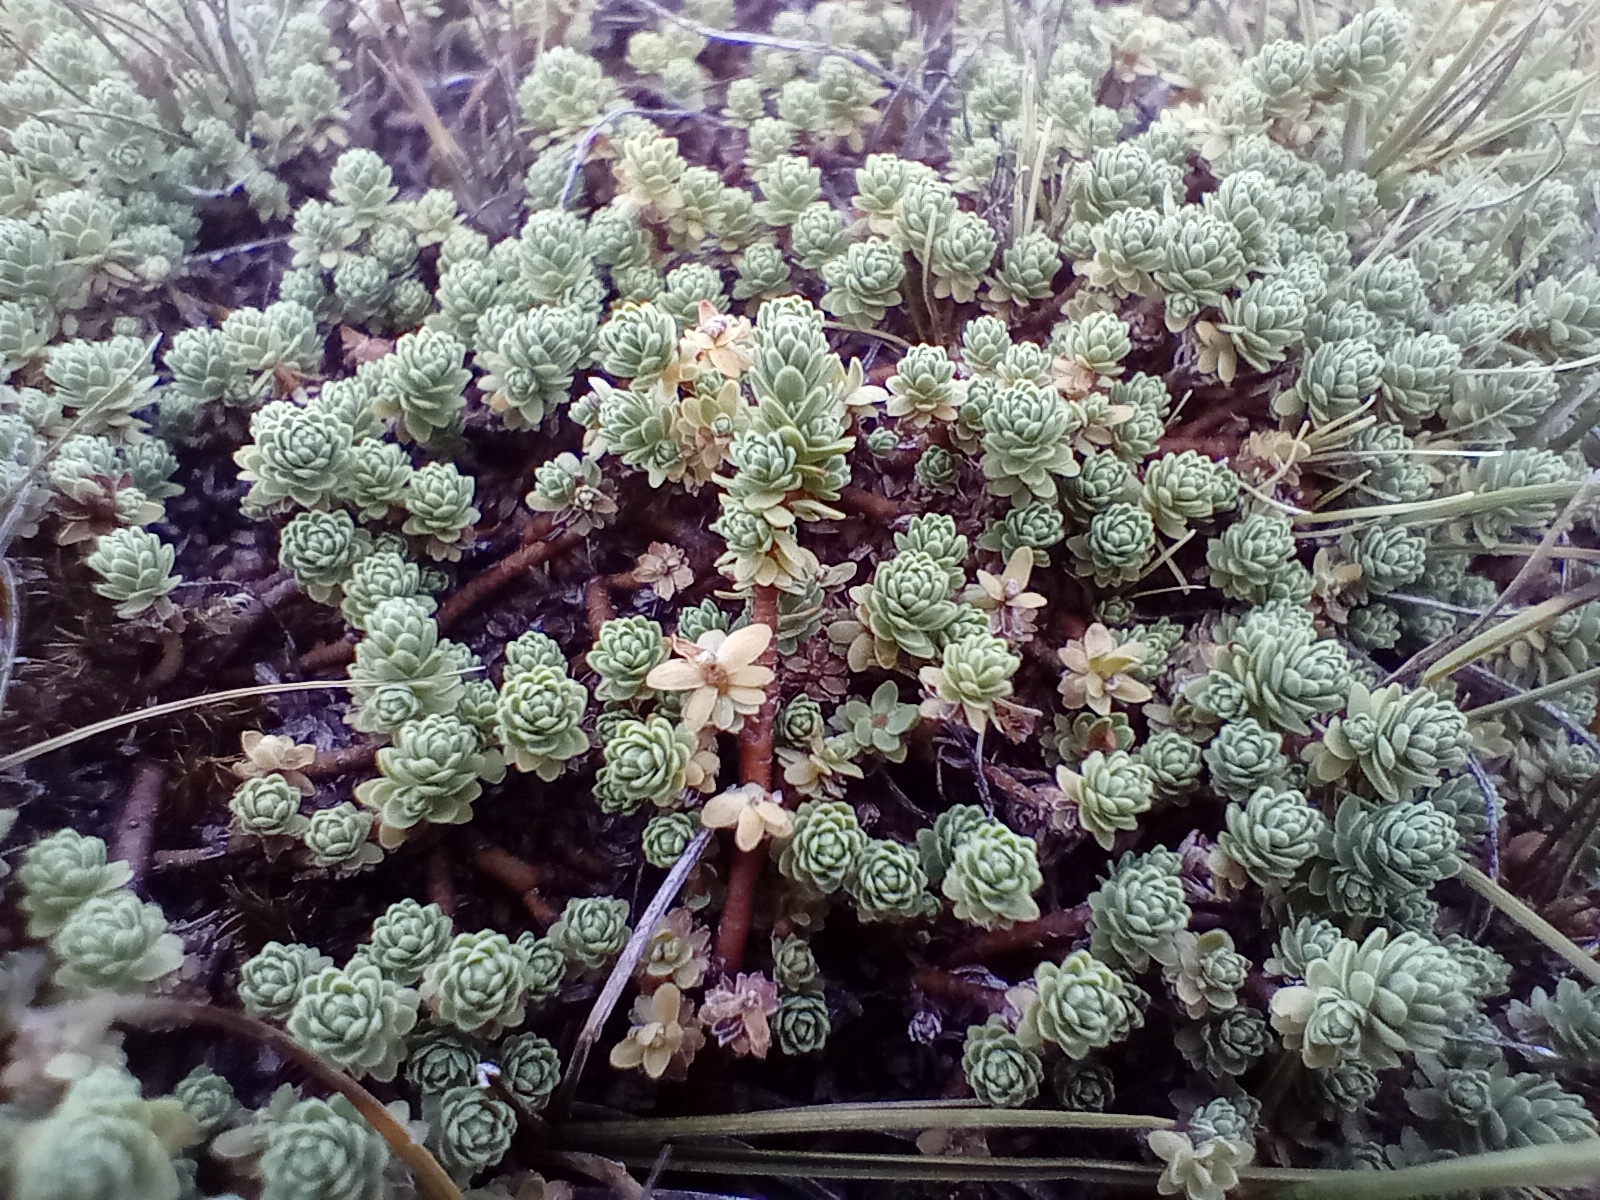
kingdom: Plantae
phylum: Tracheophyta
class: Magnoliopsida
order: Malvales
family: Thymelaeaceae
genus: Kelleria
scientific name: Kelleria paludosa
